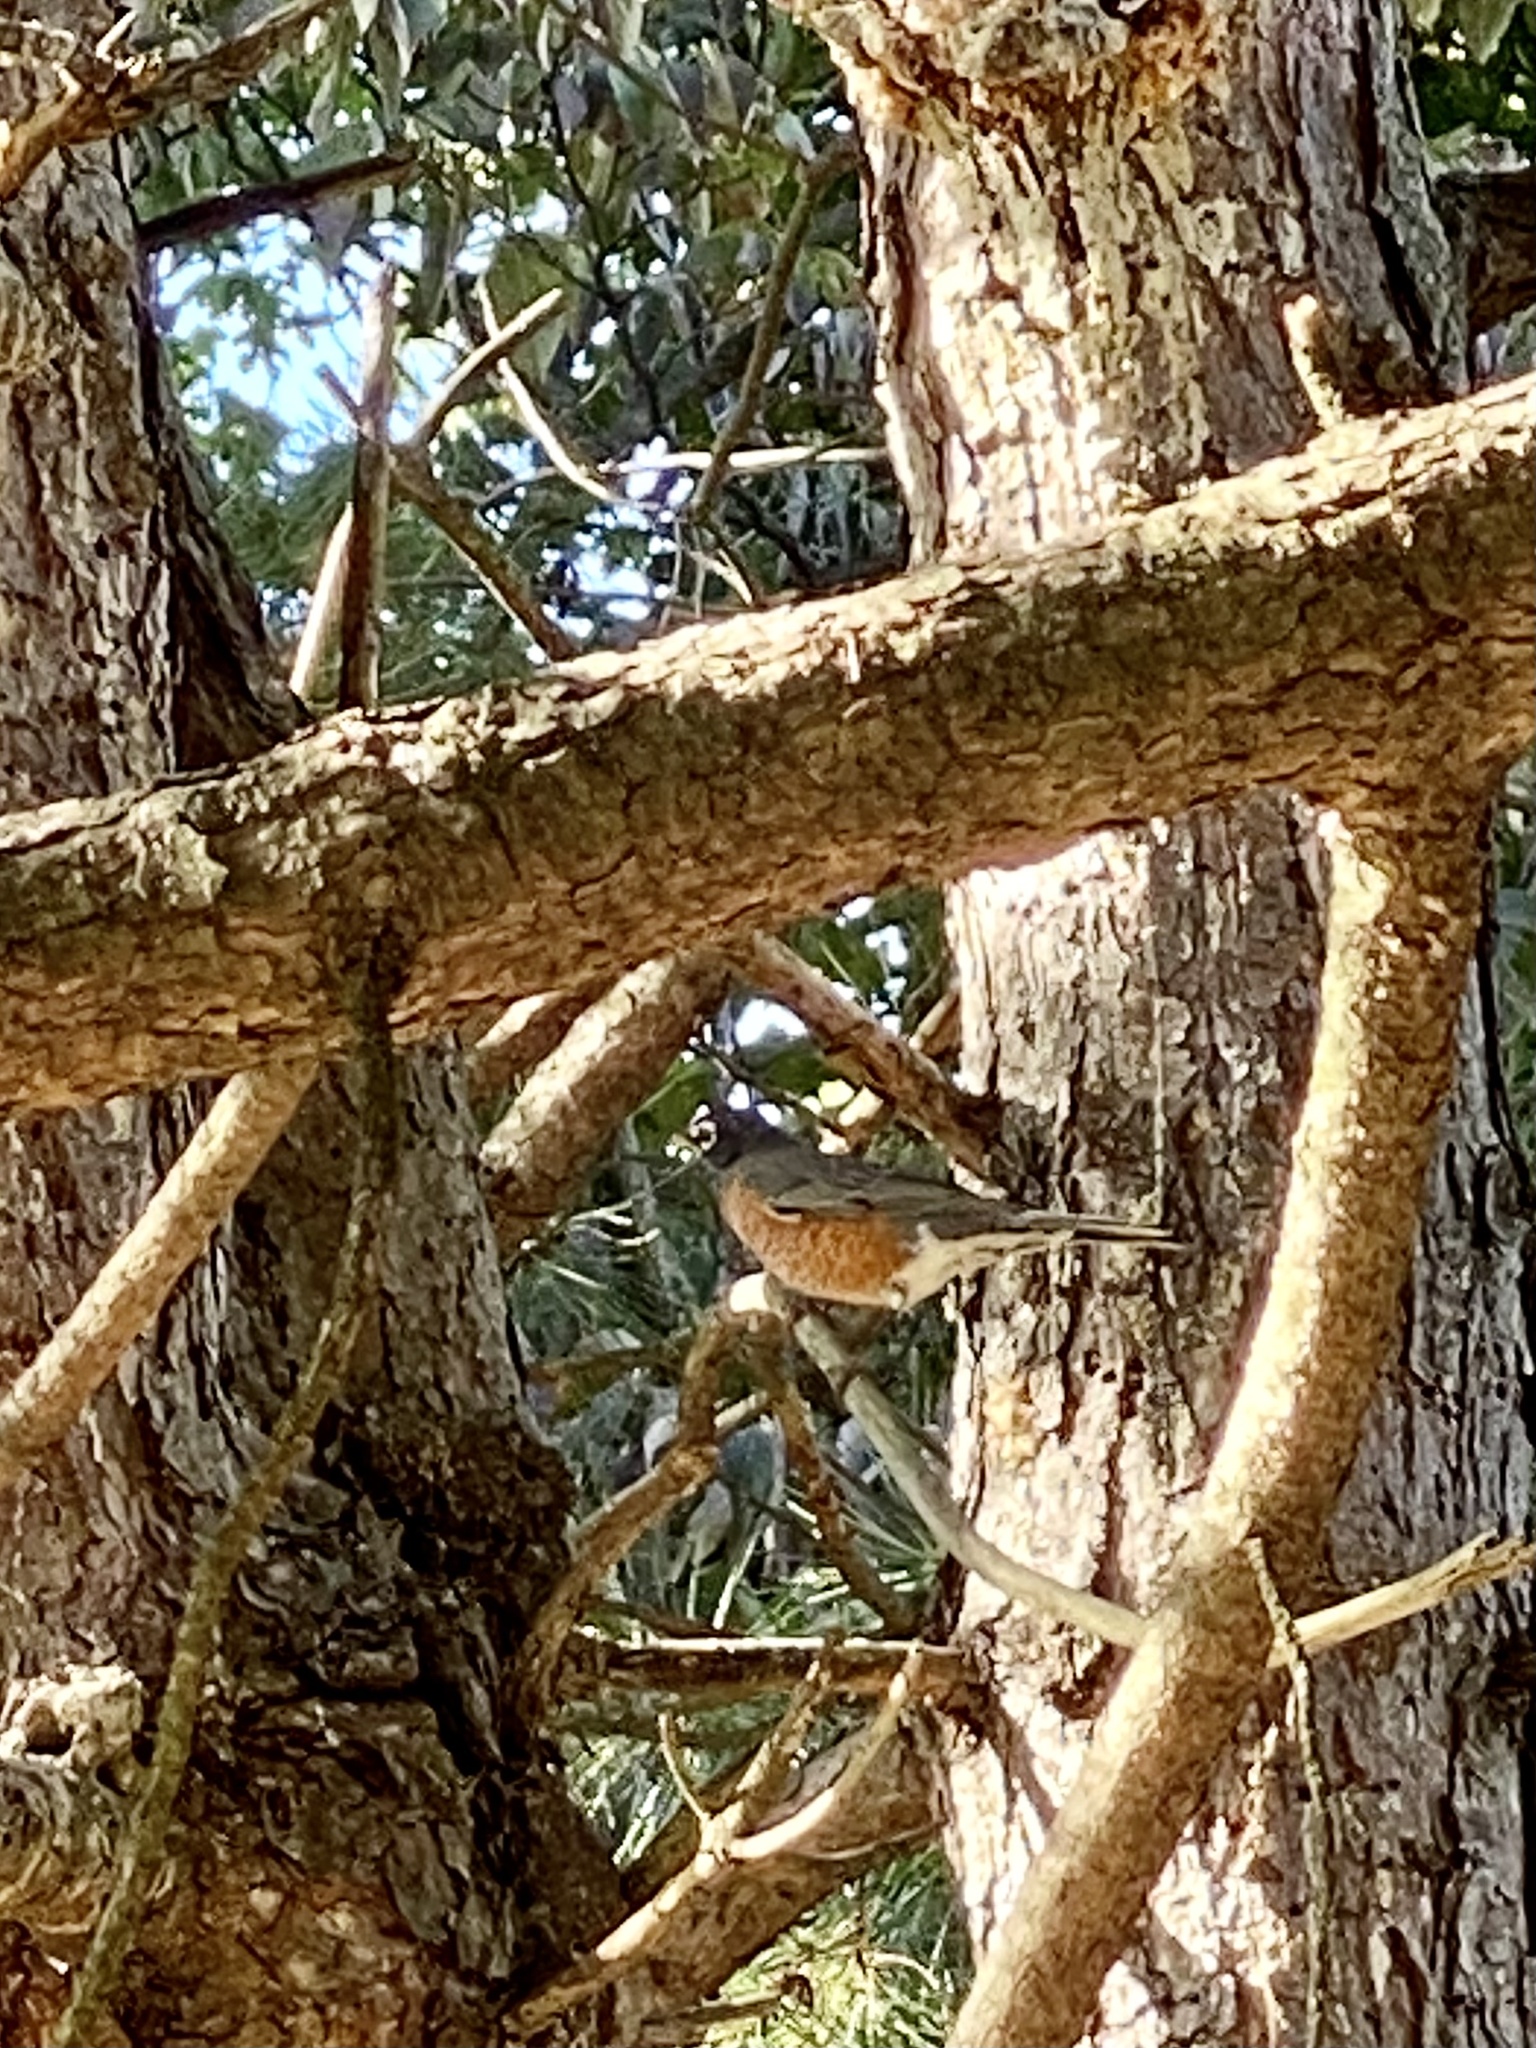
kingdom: Animalia
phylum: Chordata
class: Aves
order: Passeriformes
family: Turdidae
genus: Turdus
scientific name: Turdus migratorius
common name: American robin
